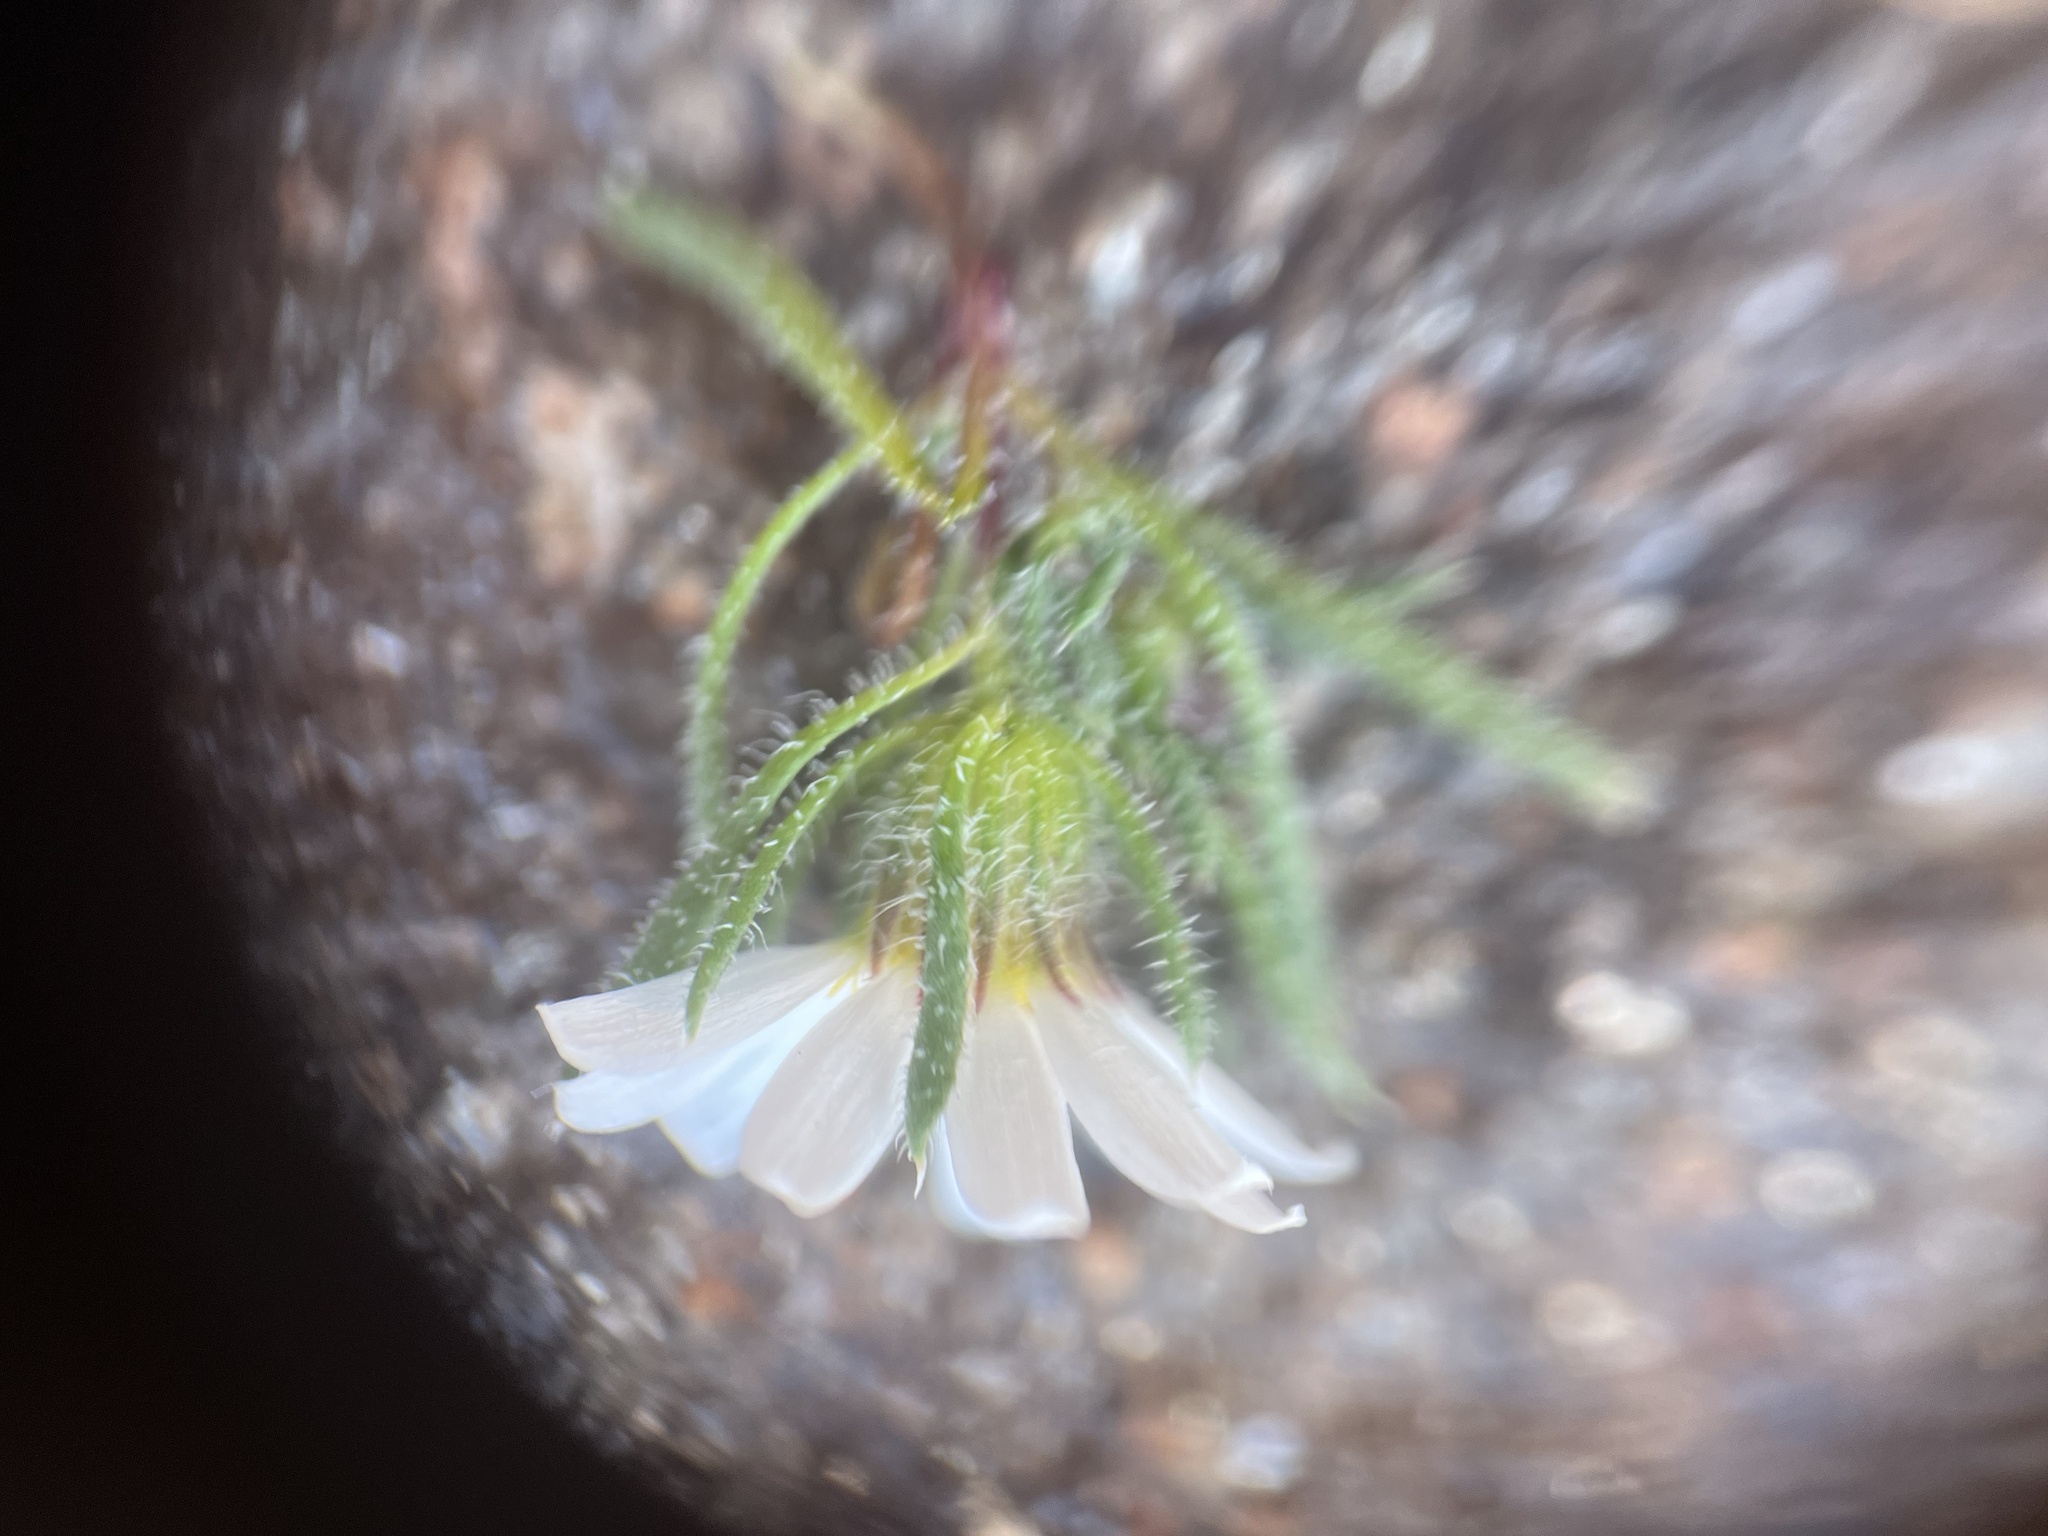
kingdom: Plantae
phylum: Tracheophyta
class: Magnoliopsida
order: Asterales
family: Asteraceae
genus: Monoptilon
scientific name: Monoptilon bellioides
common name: Bristly desertstar
